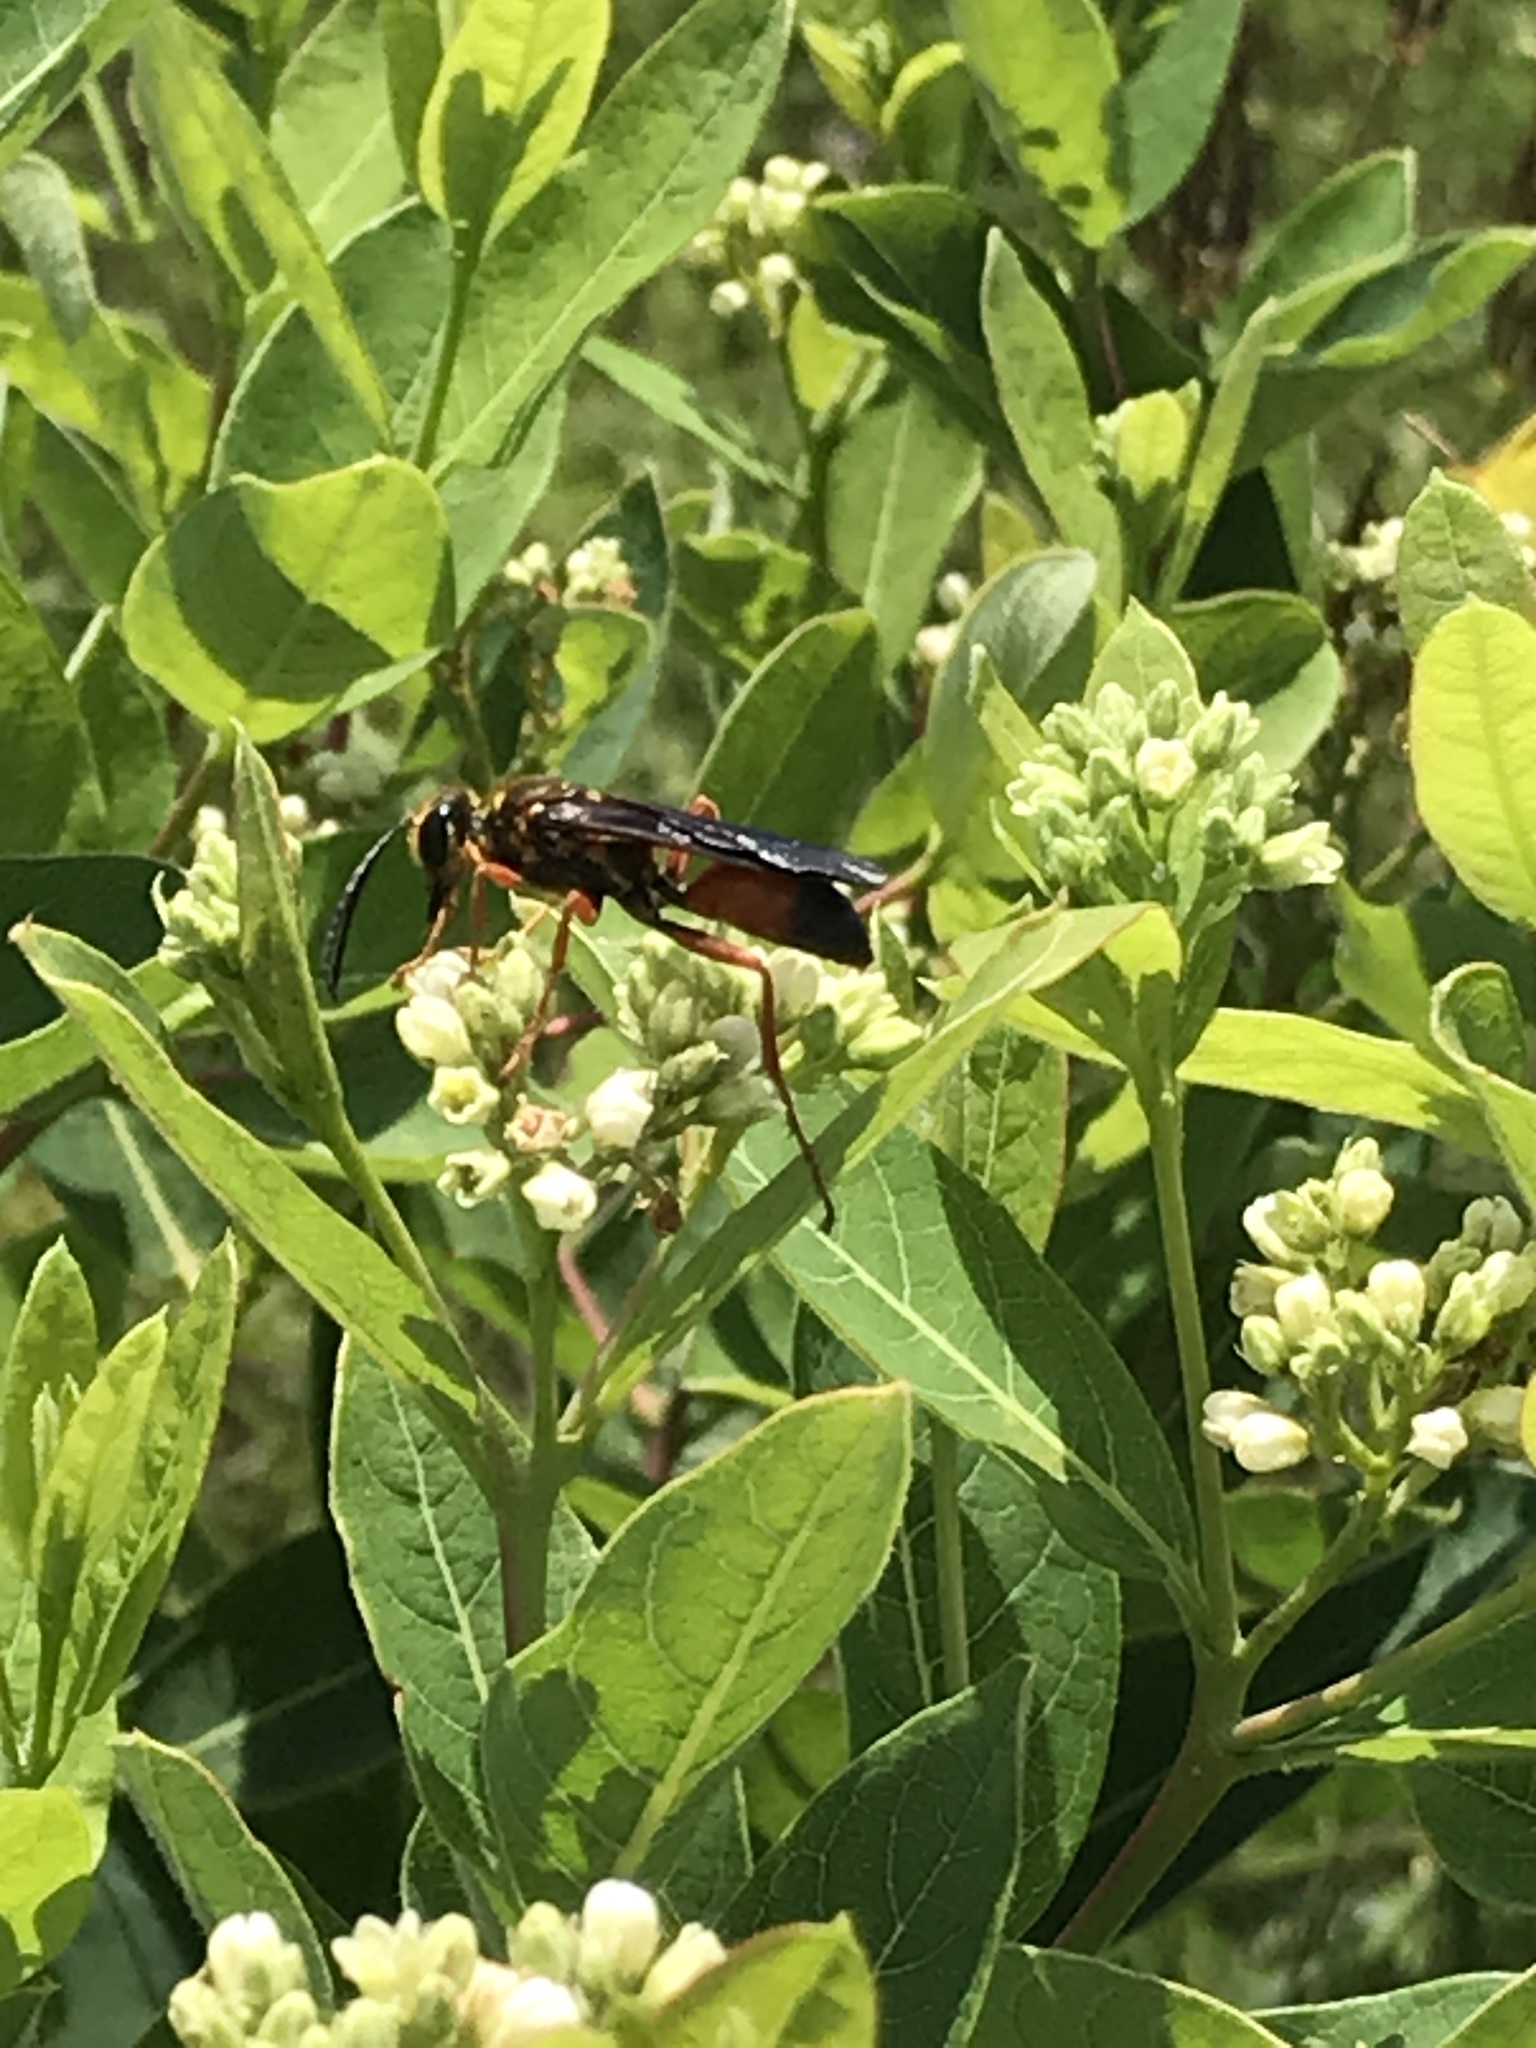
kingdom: Animalia
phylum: Arthropoda
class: Insecta
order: Hymenoptera
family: Sphecidae
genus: Sphex
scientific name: Sphex ichneumoneus
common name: Great golden digger wasp
